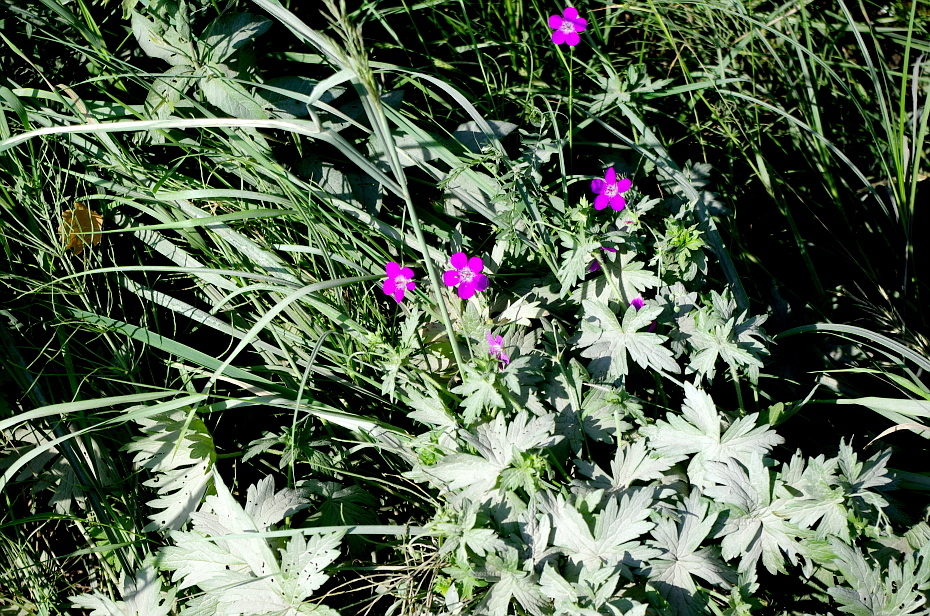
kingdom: Plantae
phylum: Tracheophyta
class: Magnoliopsida
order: Geraniales
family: Geraniaceae
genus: Geranium
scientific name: Geranium palustre
